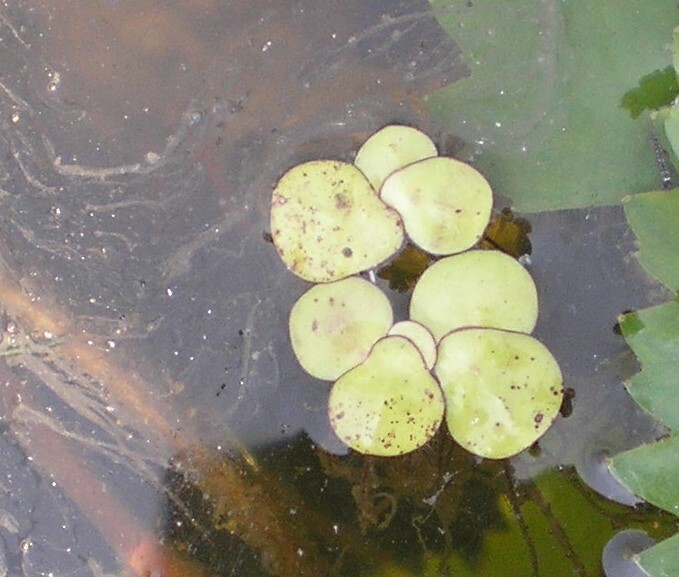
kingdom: Plantae
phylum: Tracheophyta
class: Liliopsida
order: Alismatales
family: Araceae
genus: Spirodela
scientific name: Spirodela polyrhiza
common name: Great duckweed
